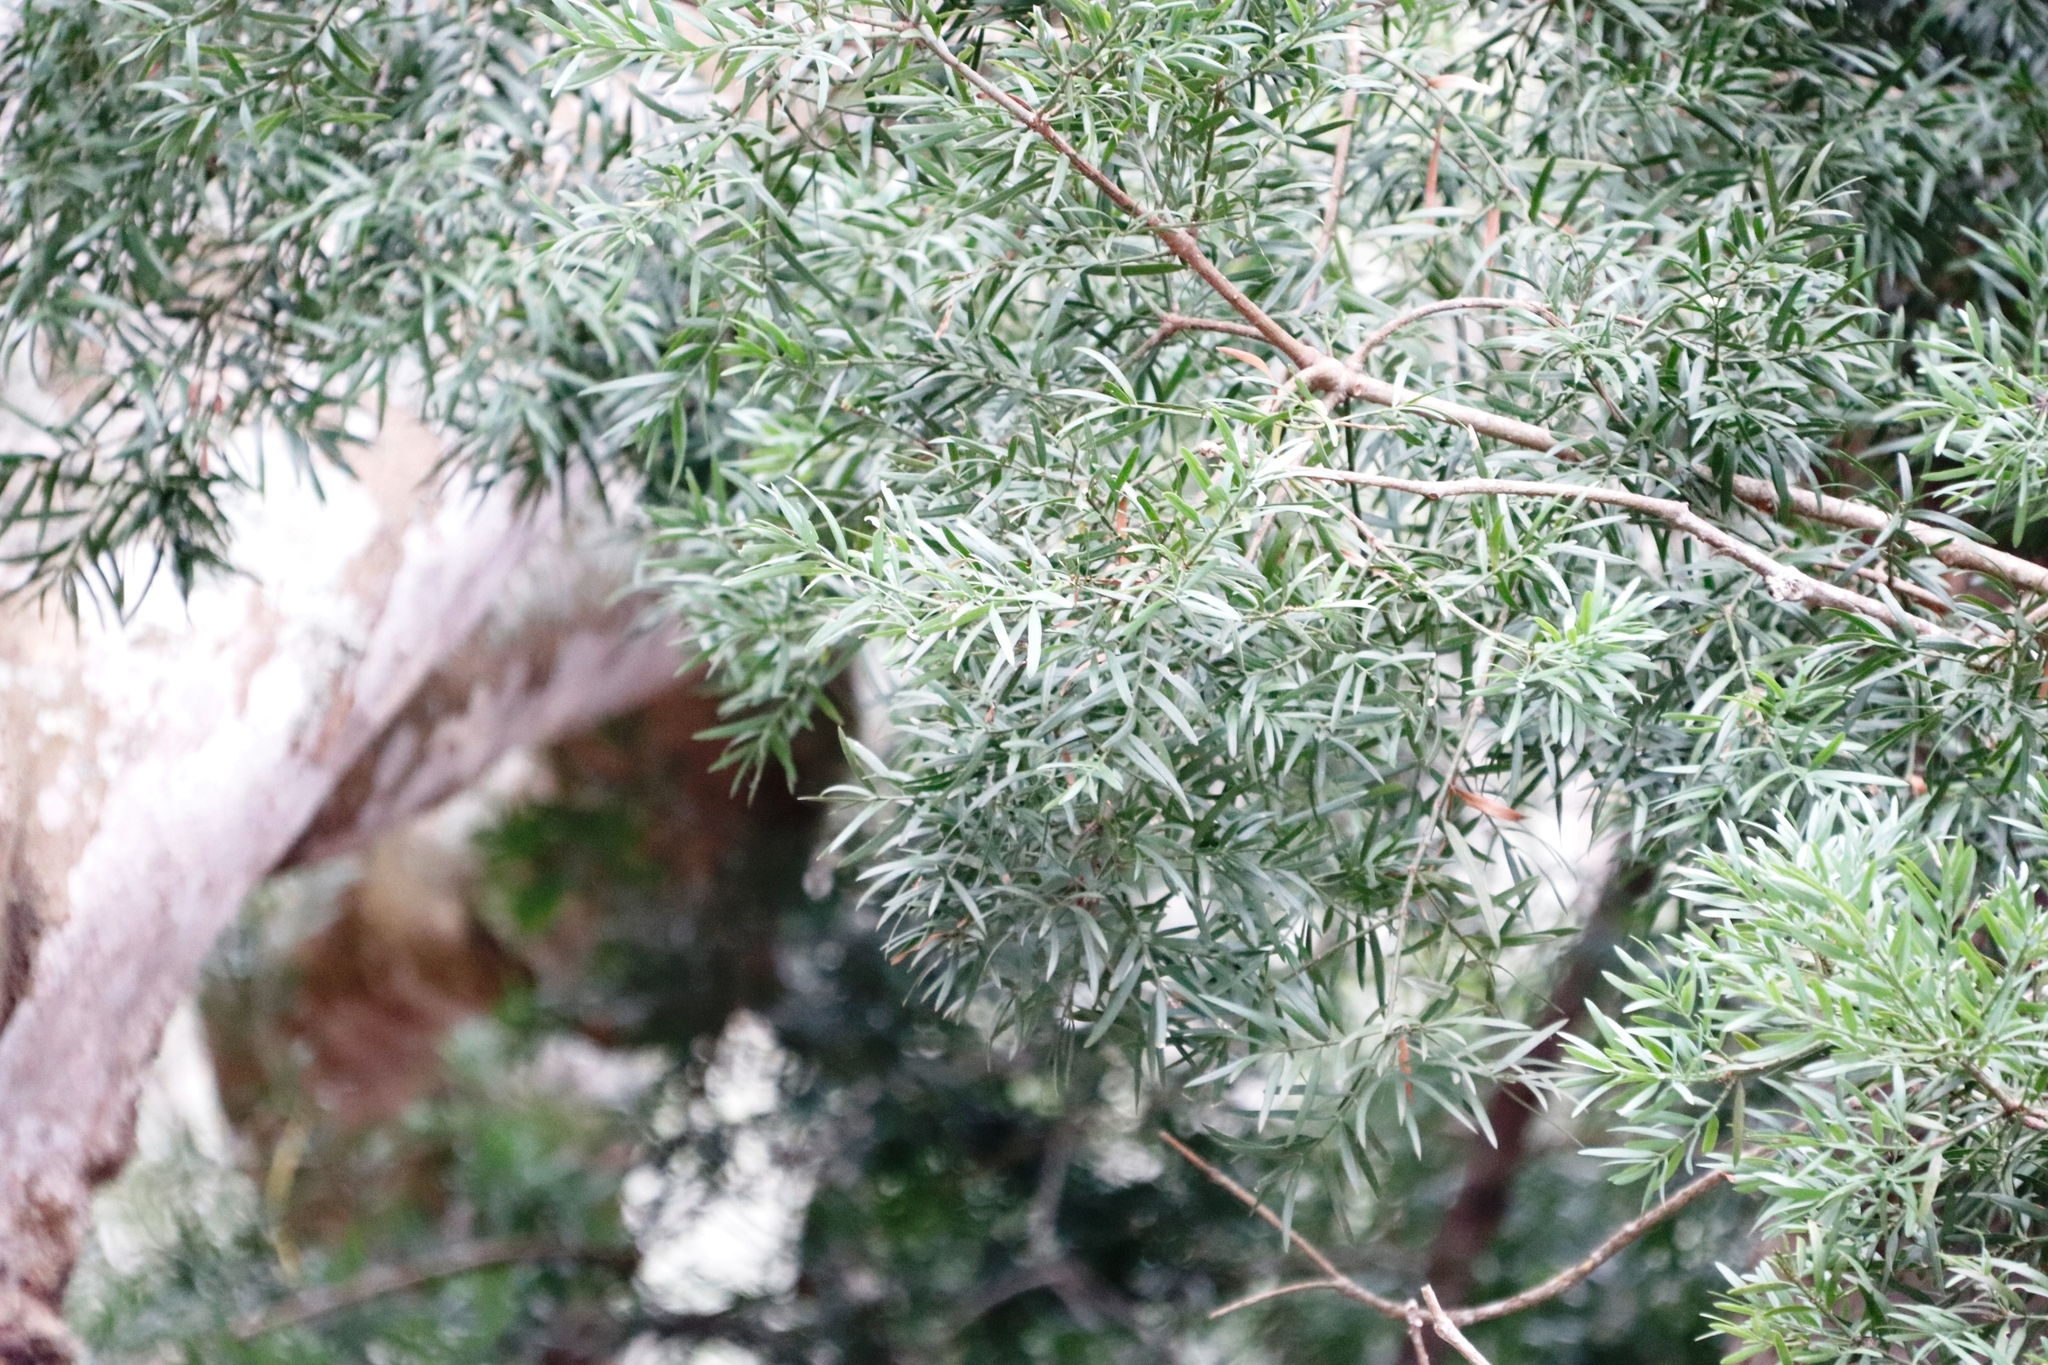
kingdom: Plantae
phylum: Tracheophyta
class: Pinopsida
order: Pinales
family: Podocarpaceae
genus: Afrocarpus
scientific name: Afrocarpus falcatus
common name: Bastard yellowwood
